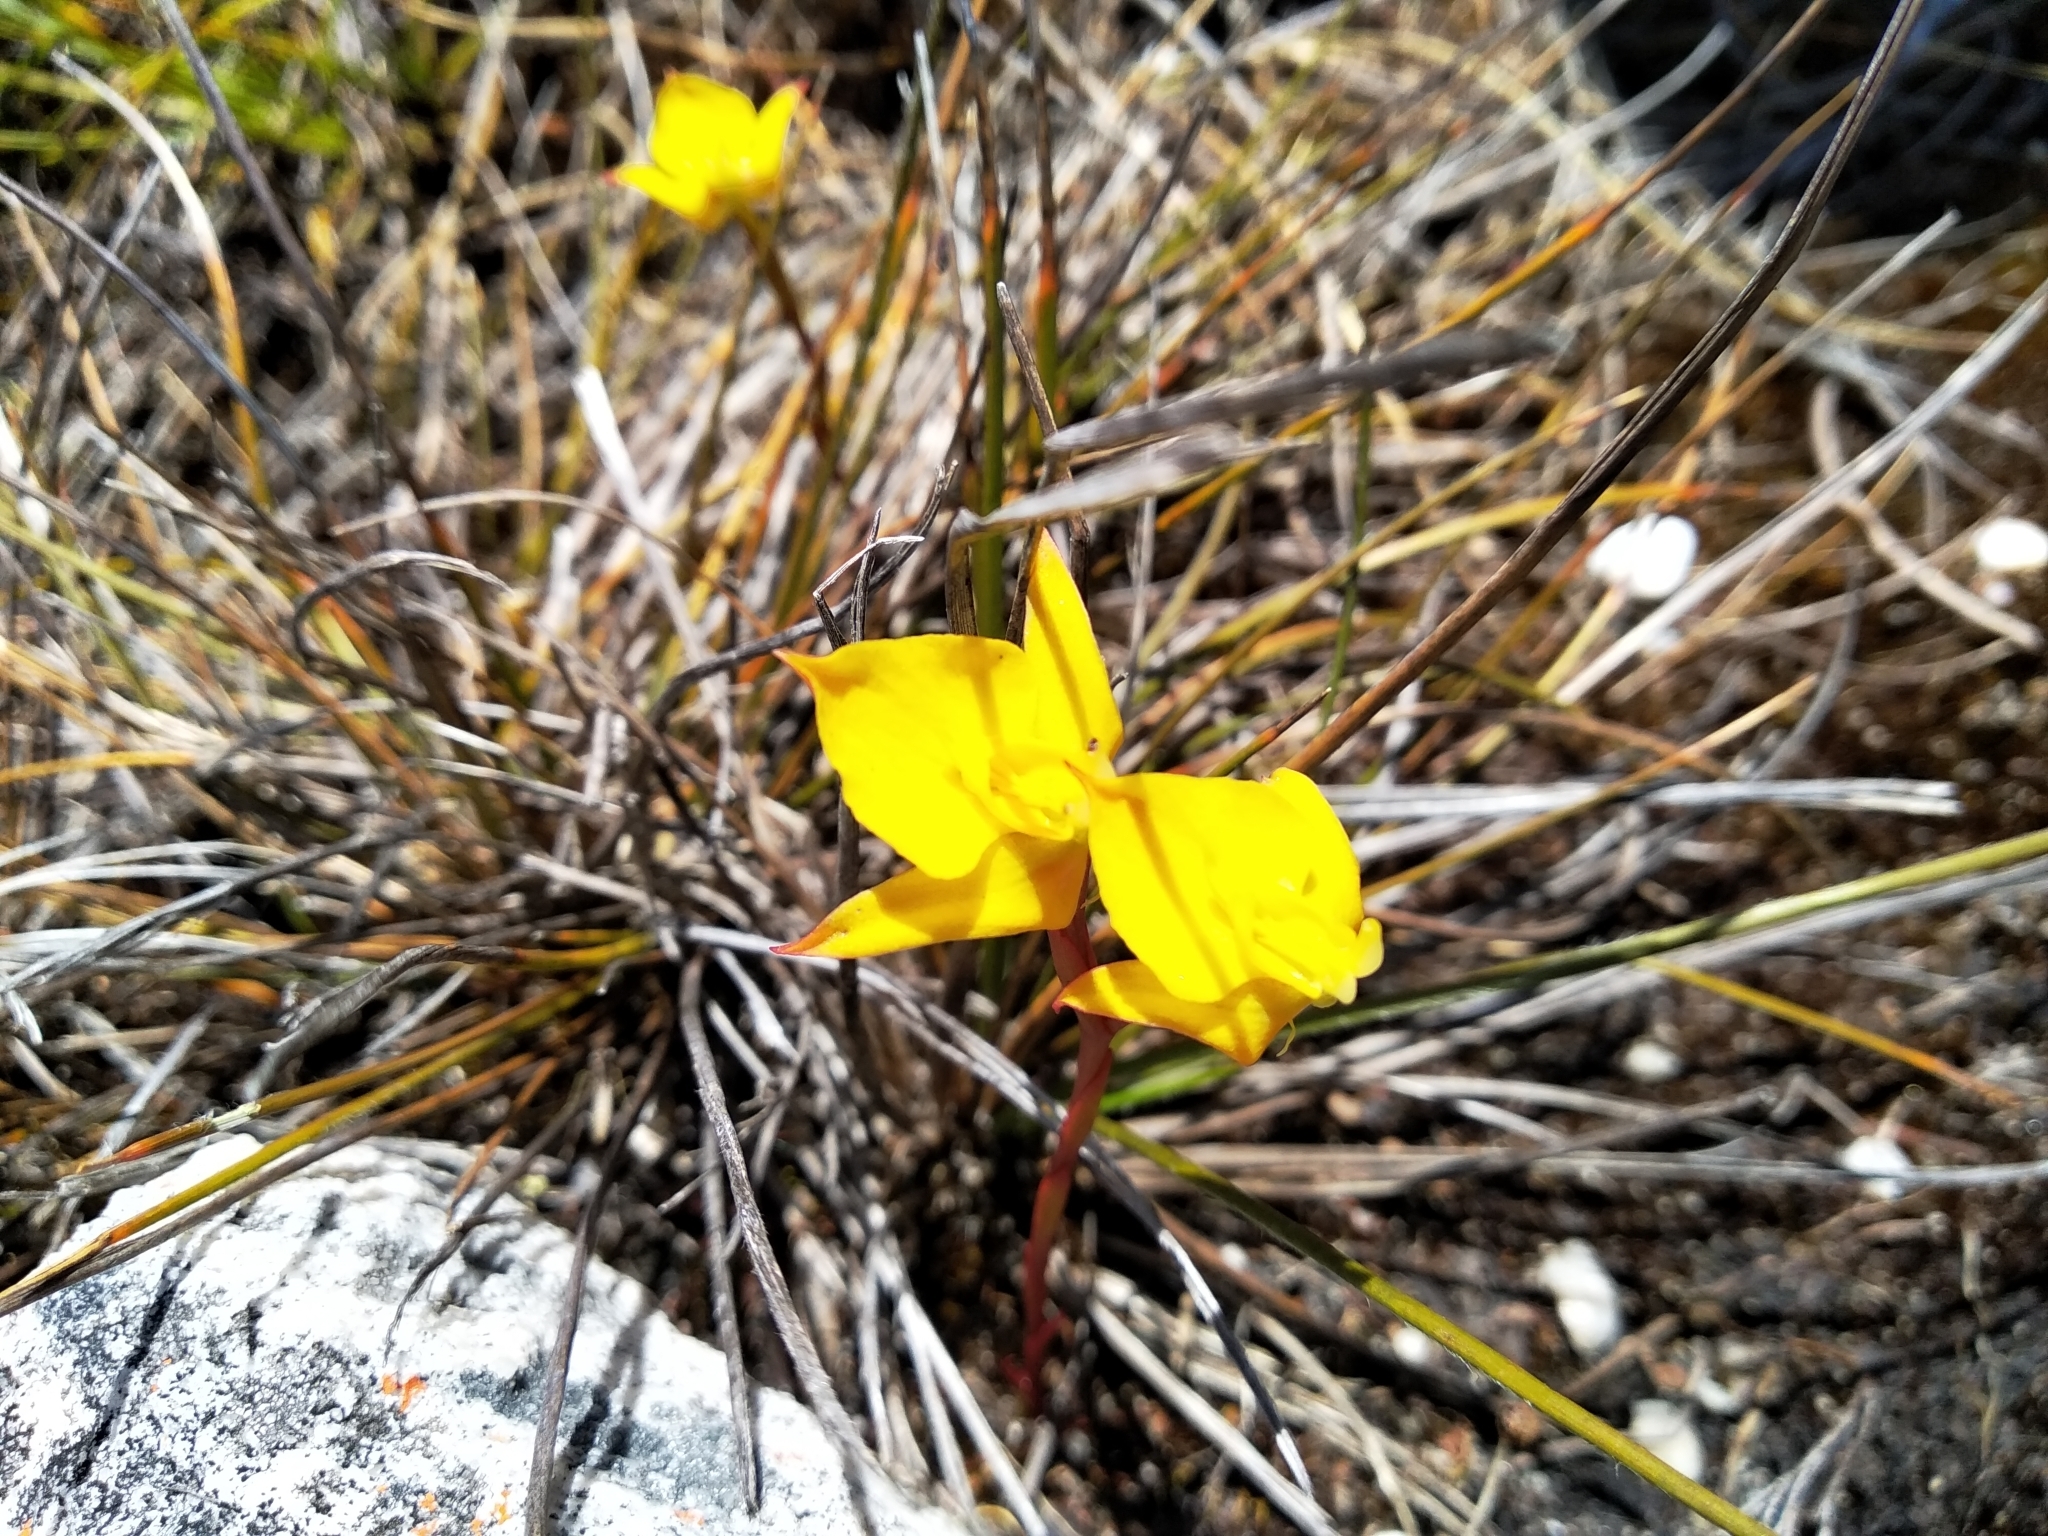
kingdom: Plantae
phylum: Tracheophyta
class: Liliopsida
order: Asparagales
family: Orchidaceae
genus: Disa
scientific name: Disa tenuifolia
